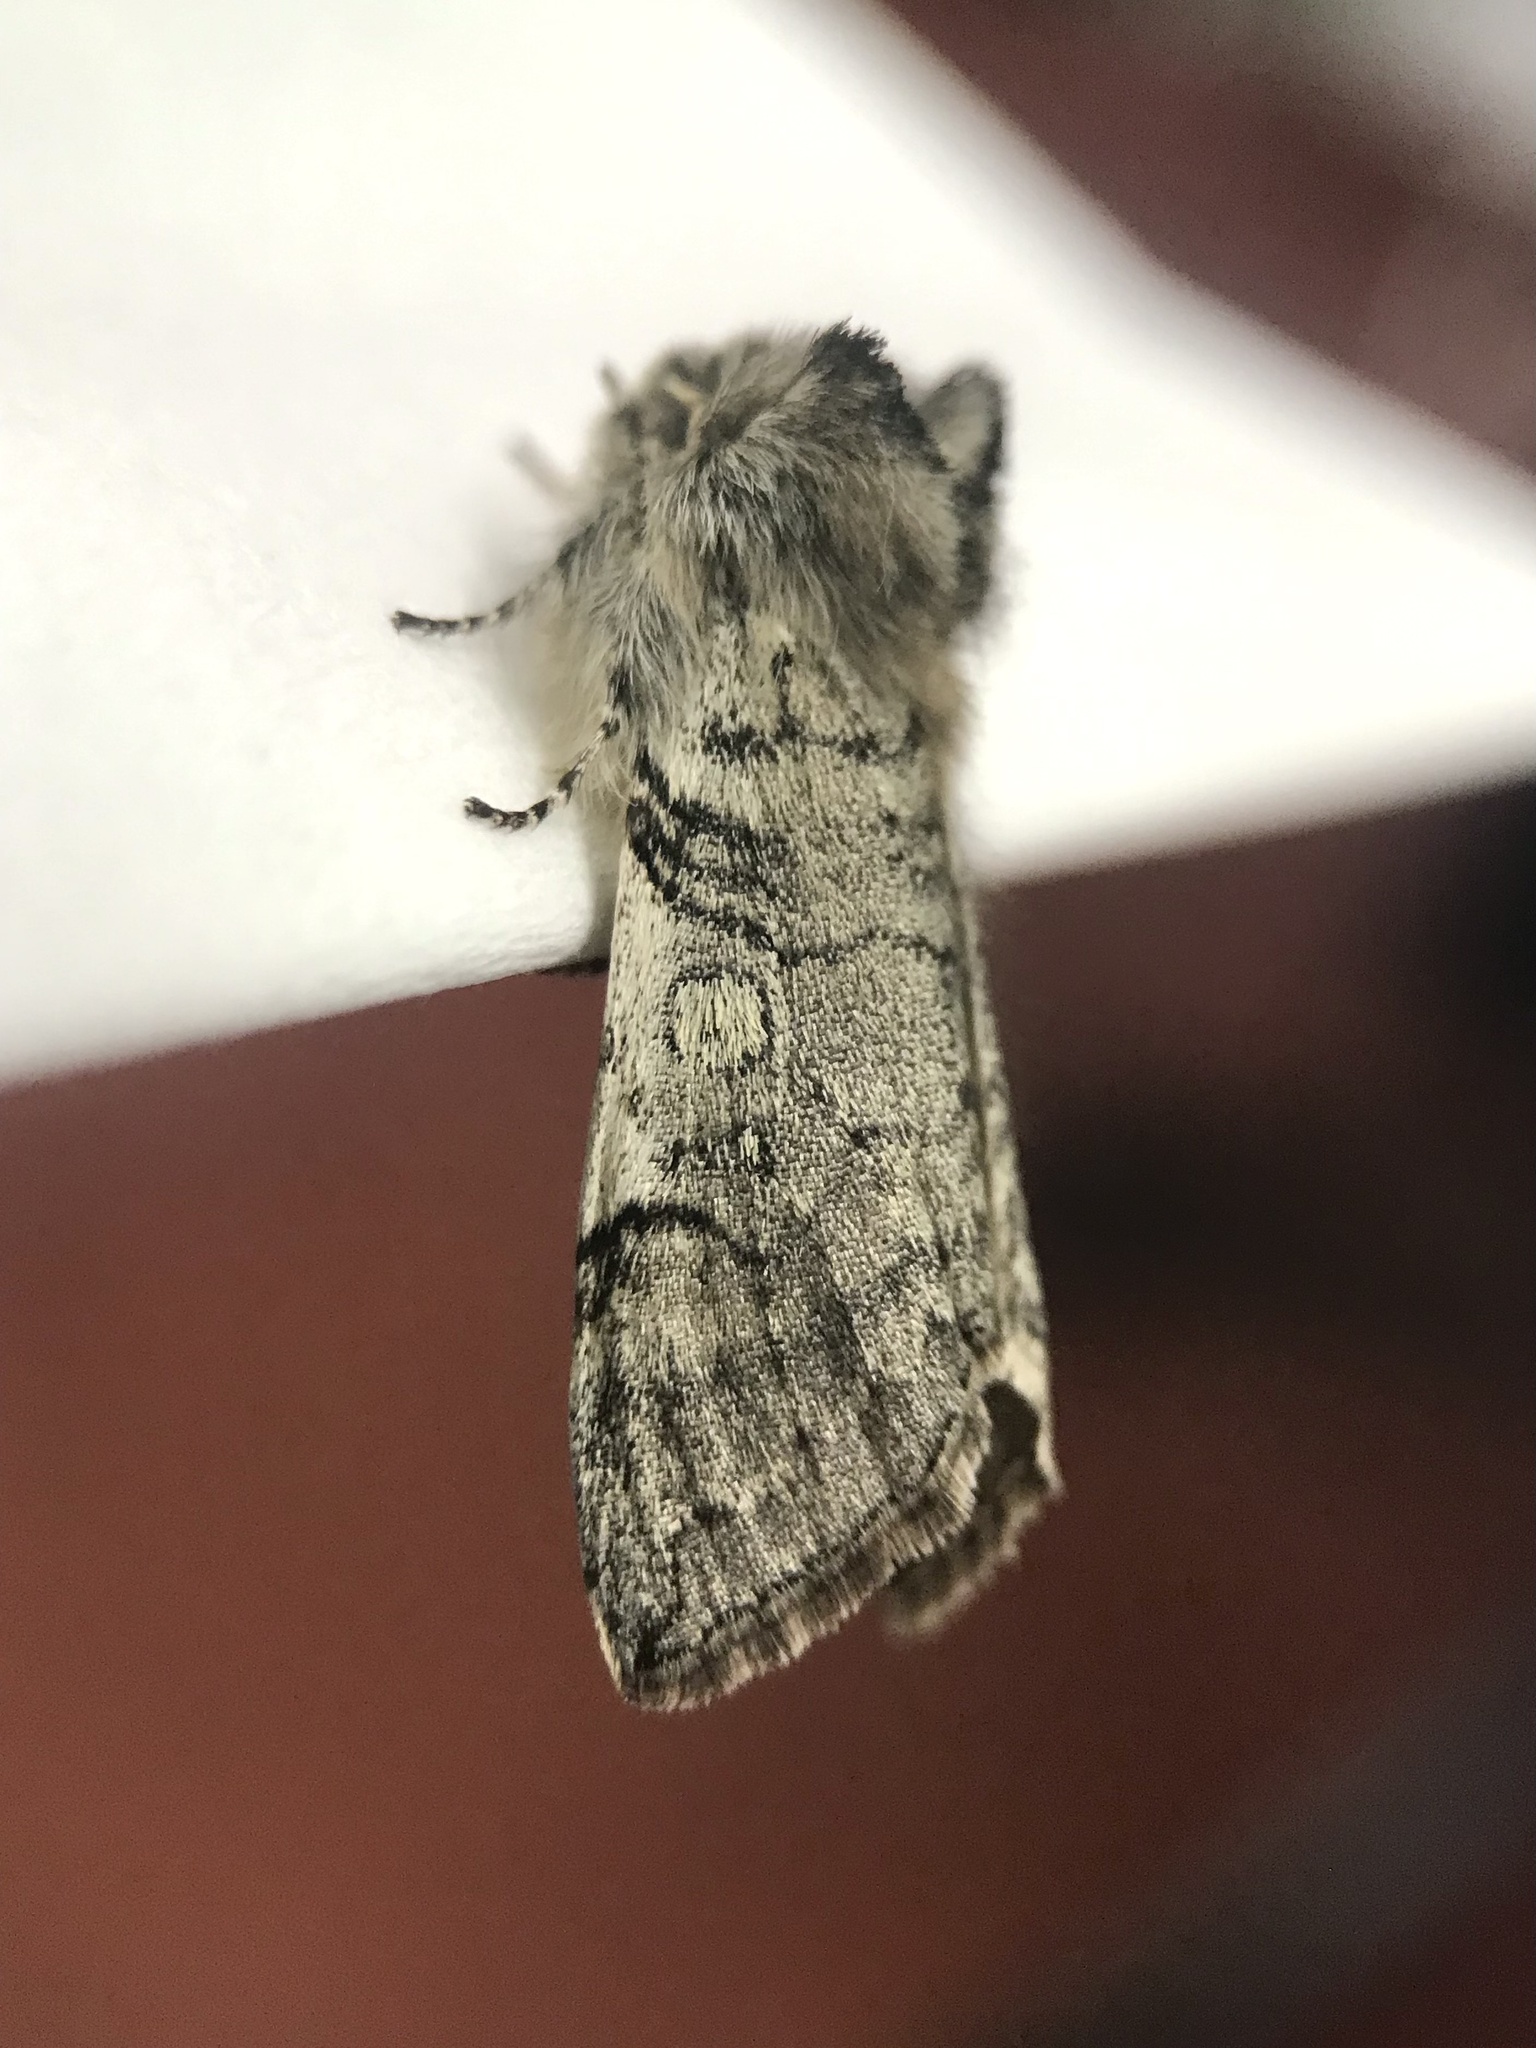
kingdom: Animalia
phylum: Arthropoda
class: Insecta
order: Lepidoptera
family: Drepanidae
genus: Achlya
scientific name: Achlya flavicornis
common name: Yellow horned
